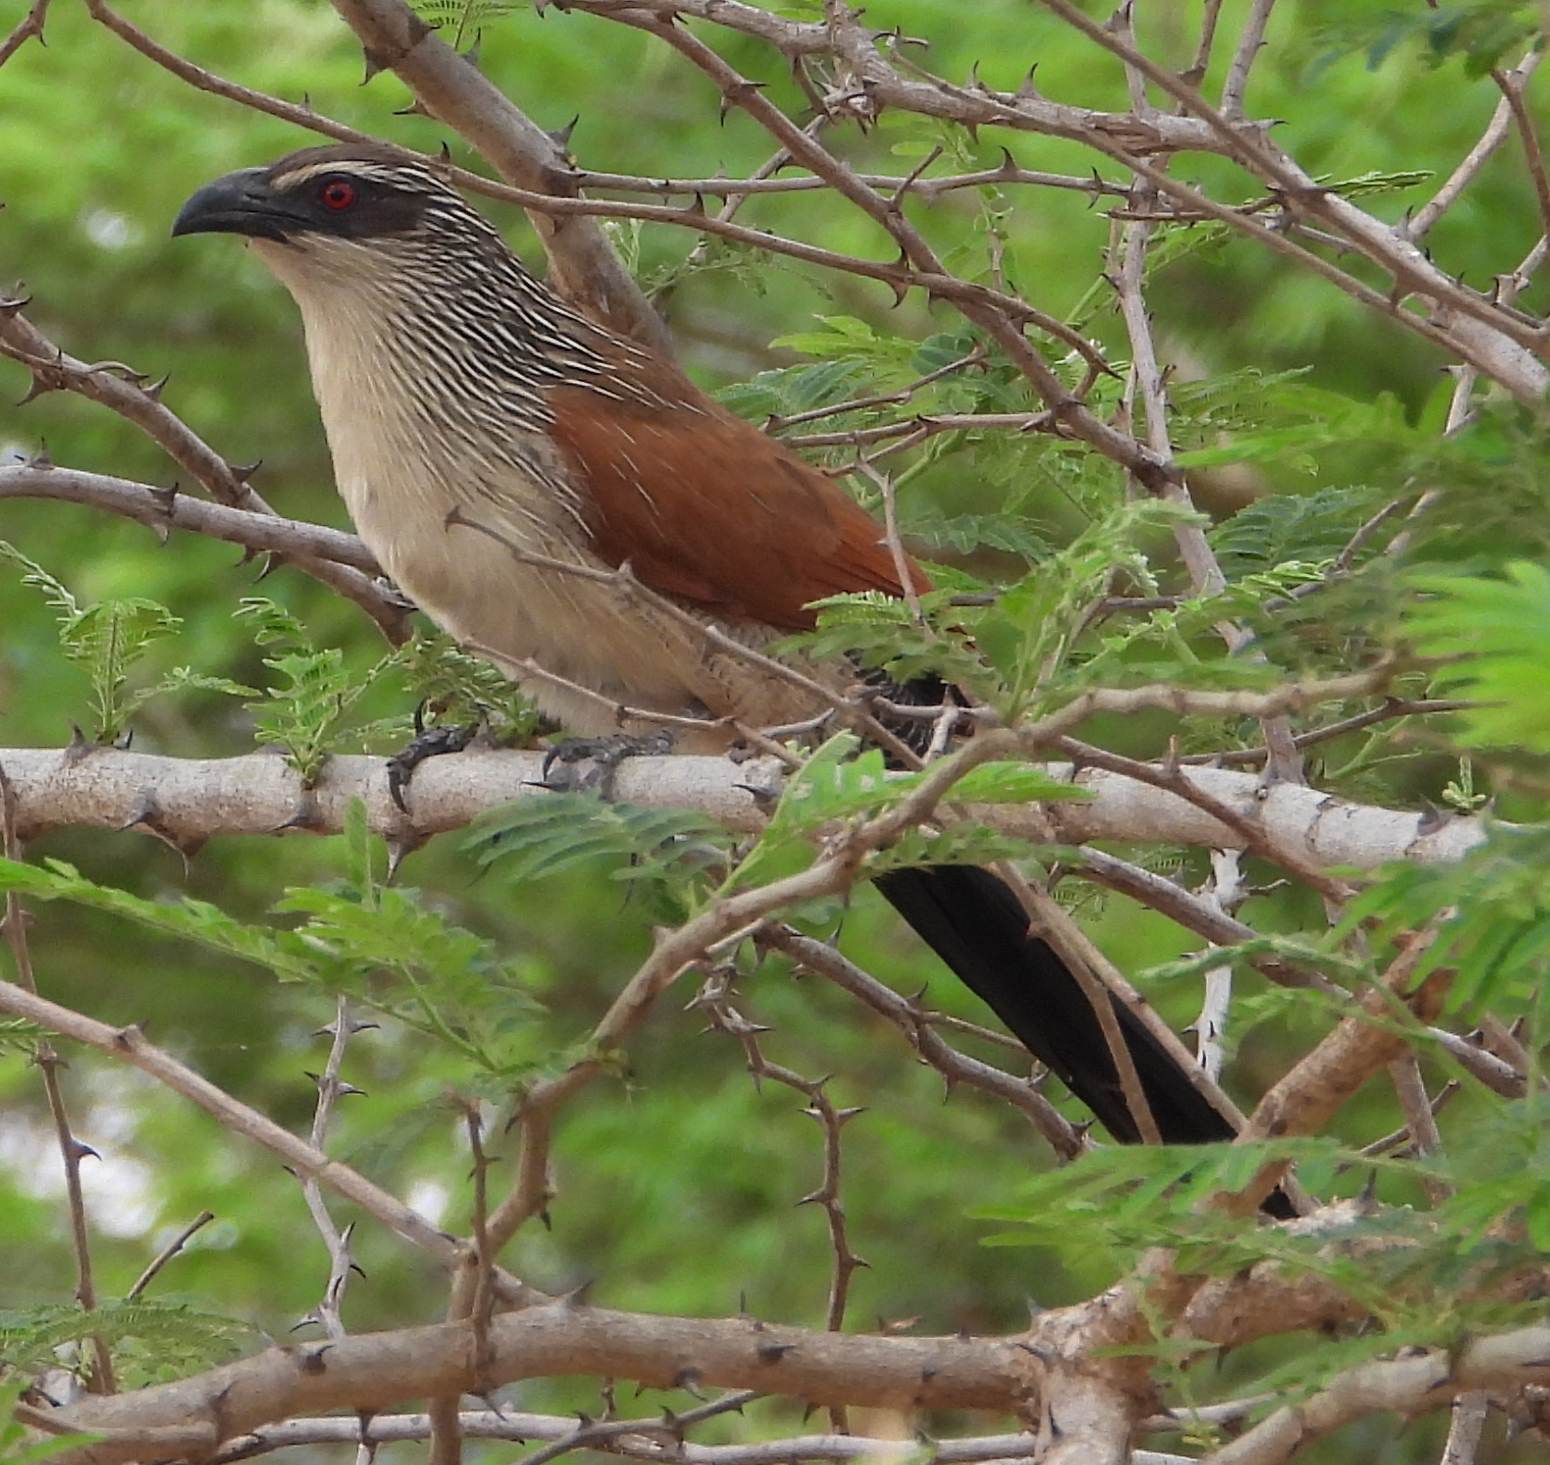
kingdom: Animalia
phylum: Chordata
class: Aves
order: Cuculiformes
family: Cuculidae
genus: Centropus
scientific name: Centropus superciliosus
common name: White-browed coucal
